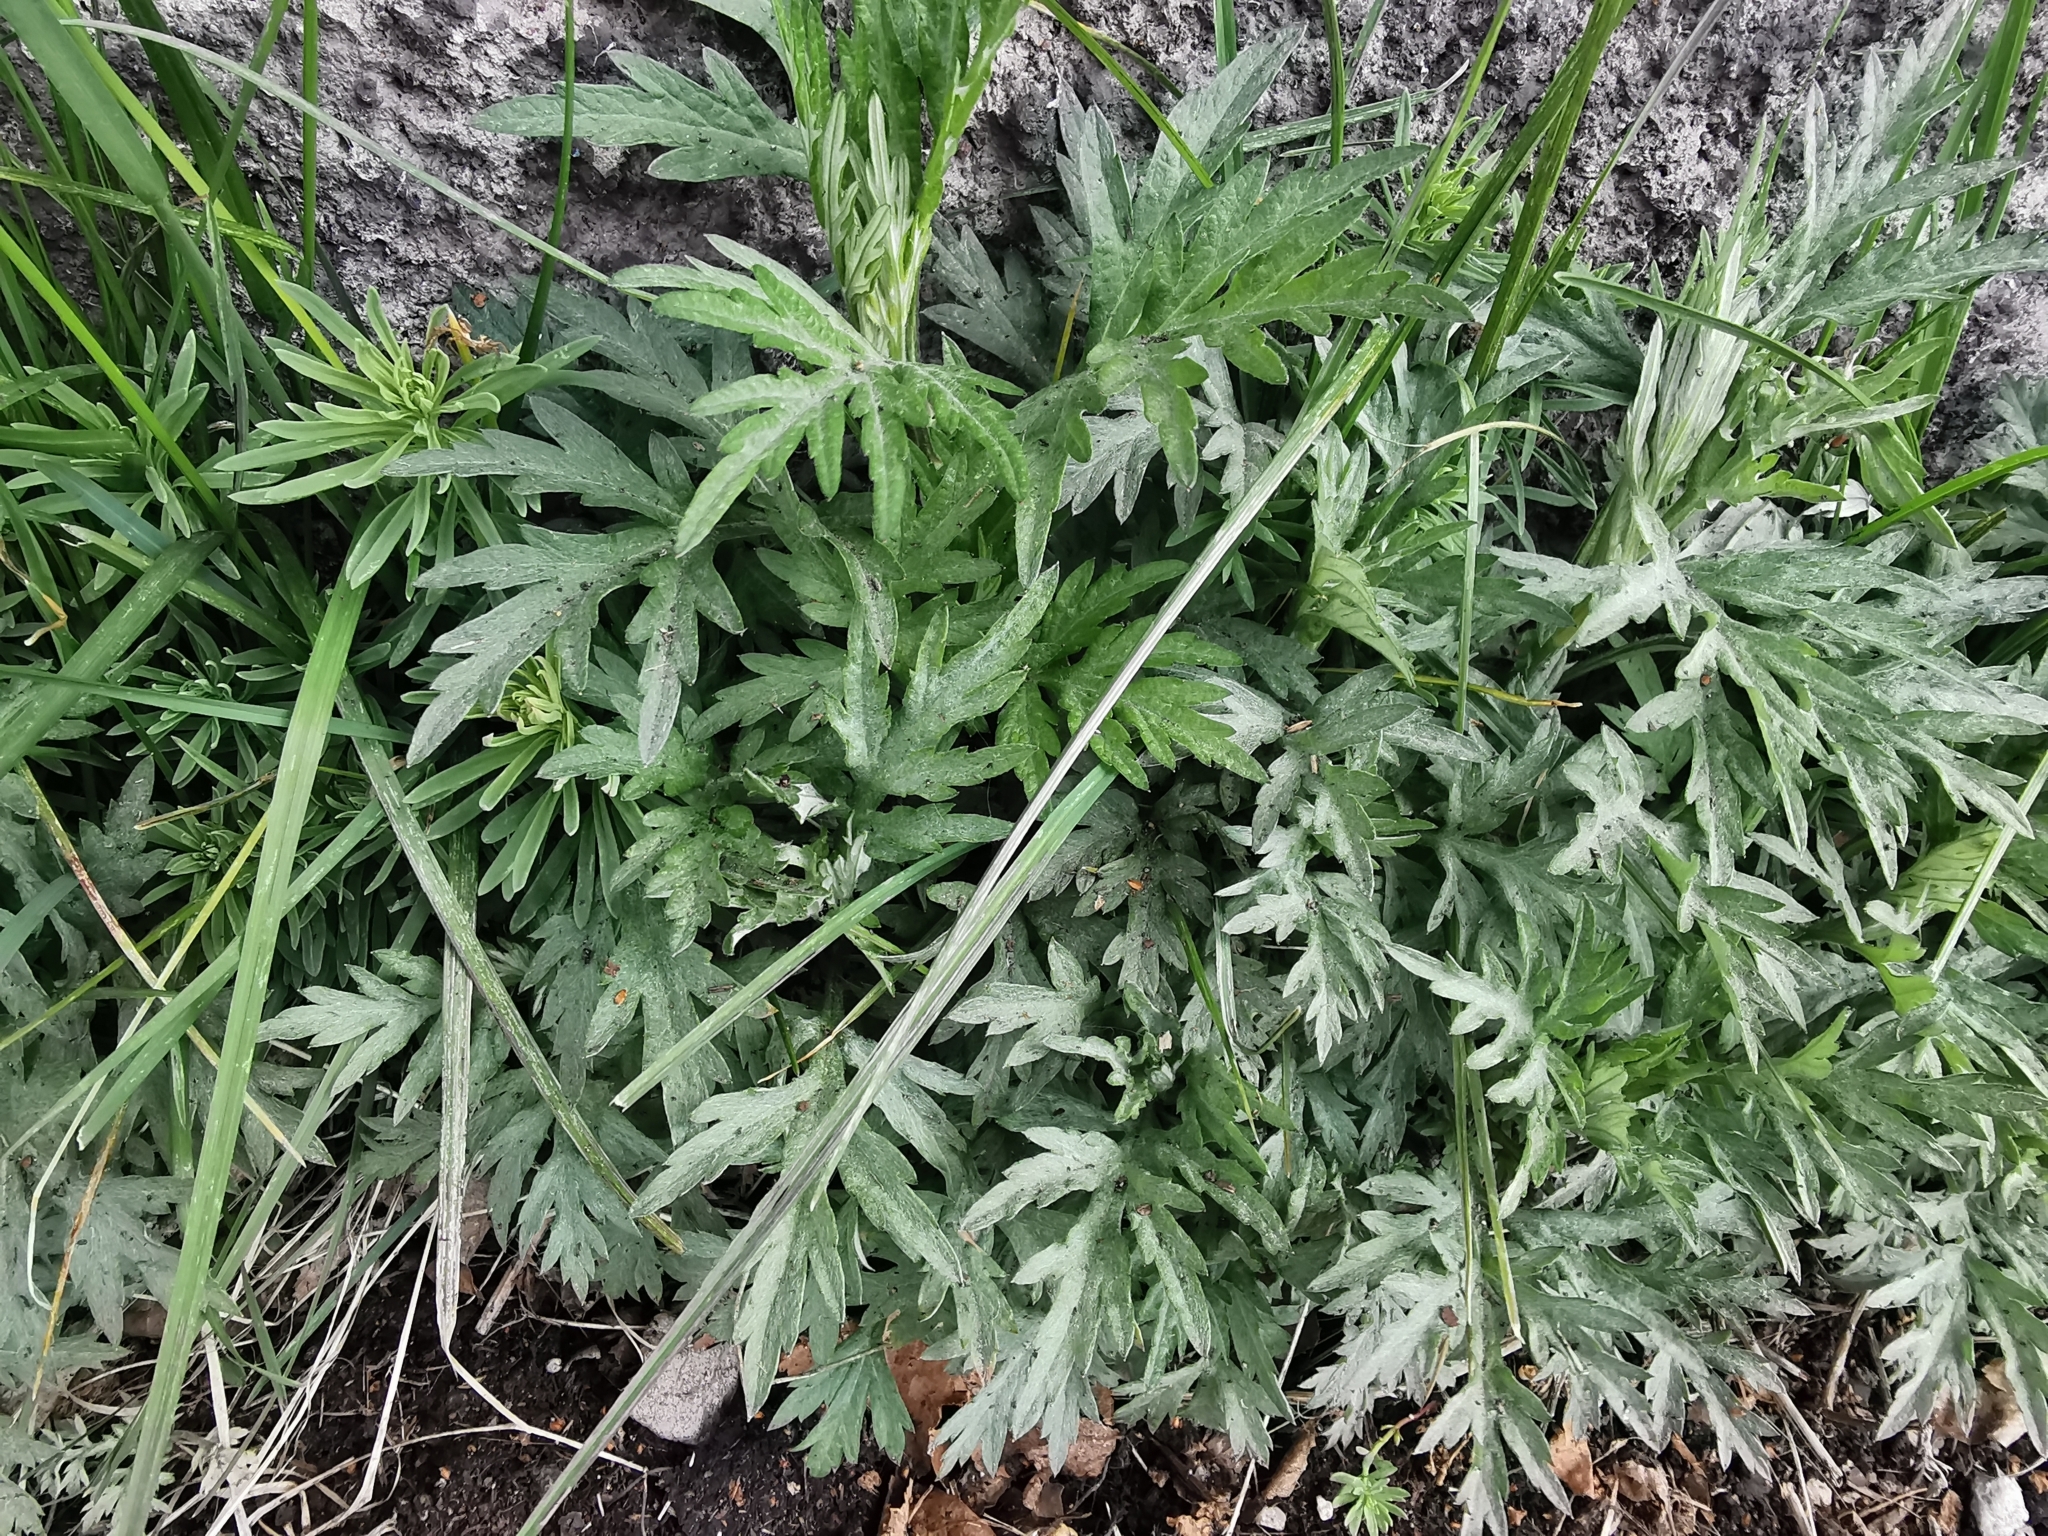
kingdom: Plantae
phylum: Tracheophyta
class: Magnoliopsida
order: Asterales
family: Asteraceae
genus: Artemisia
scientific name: Artemisia vulgaris
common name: Mugwort
